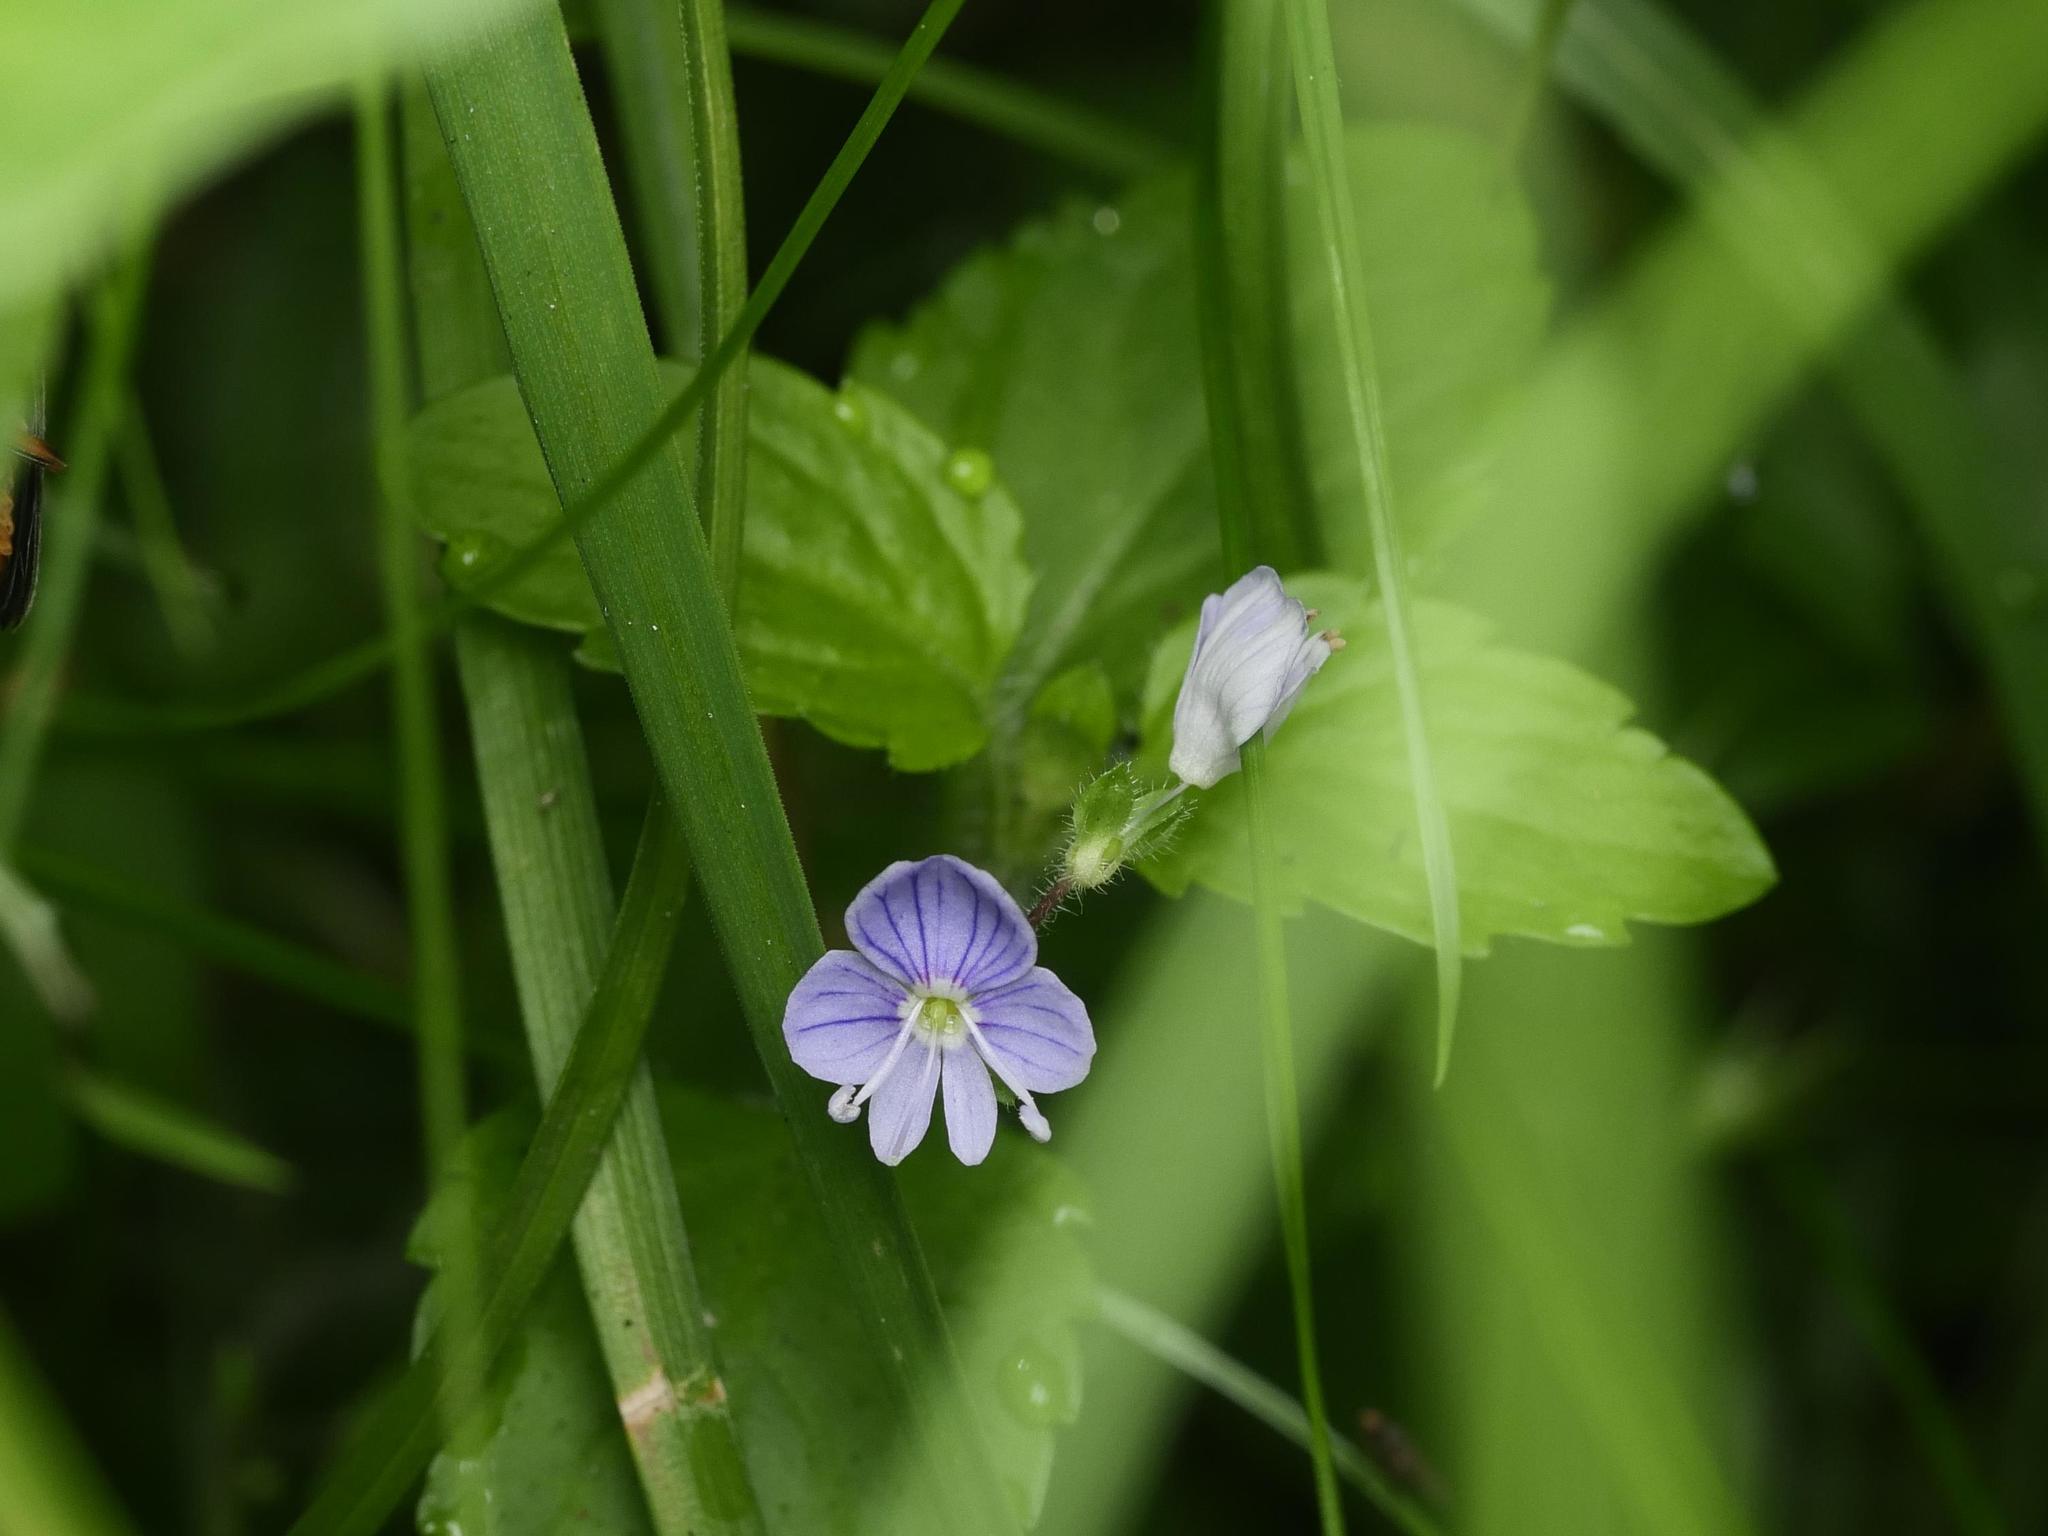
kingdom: Plantae
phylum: Tracheophyta
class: Magnoliopsida
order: Lamiales
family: Plantaginaceae
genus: Veronica
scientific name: Veronica montana
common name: Wood speedwell
